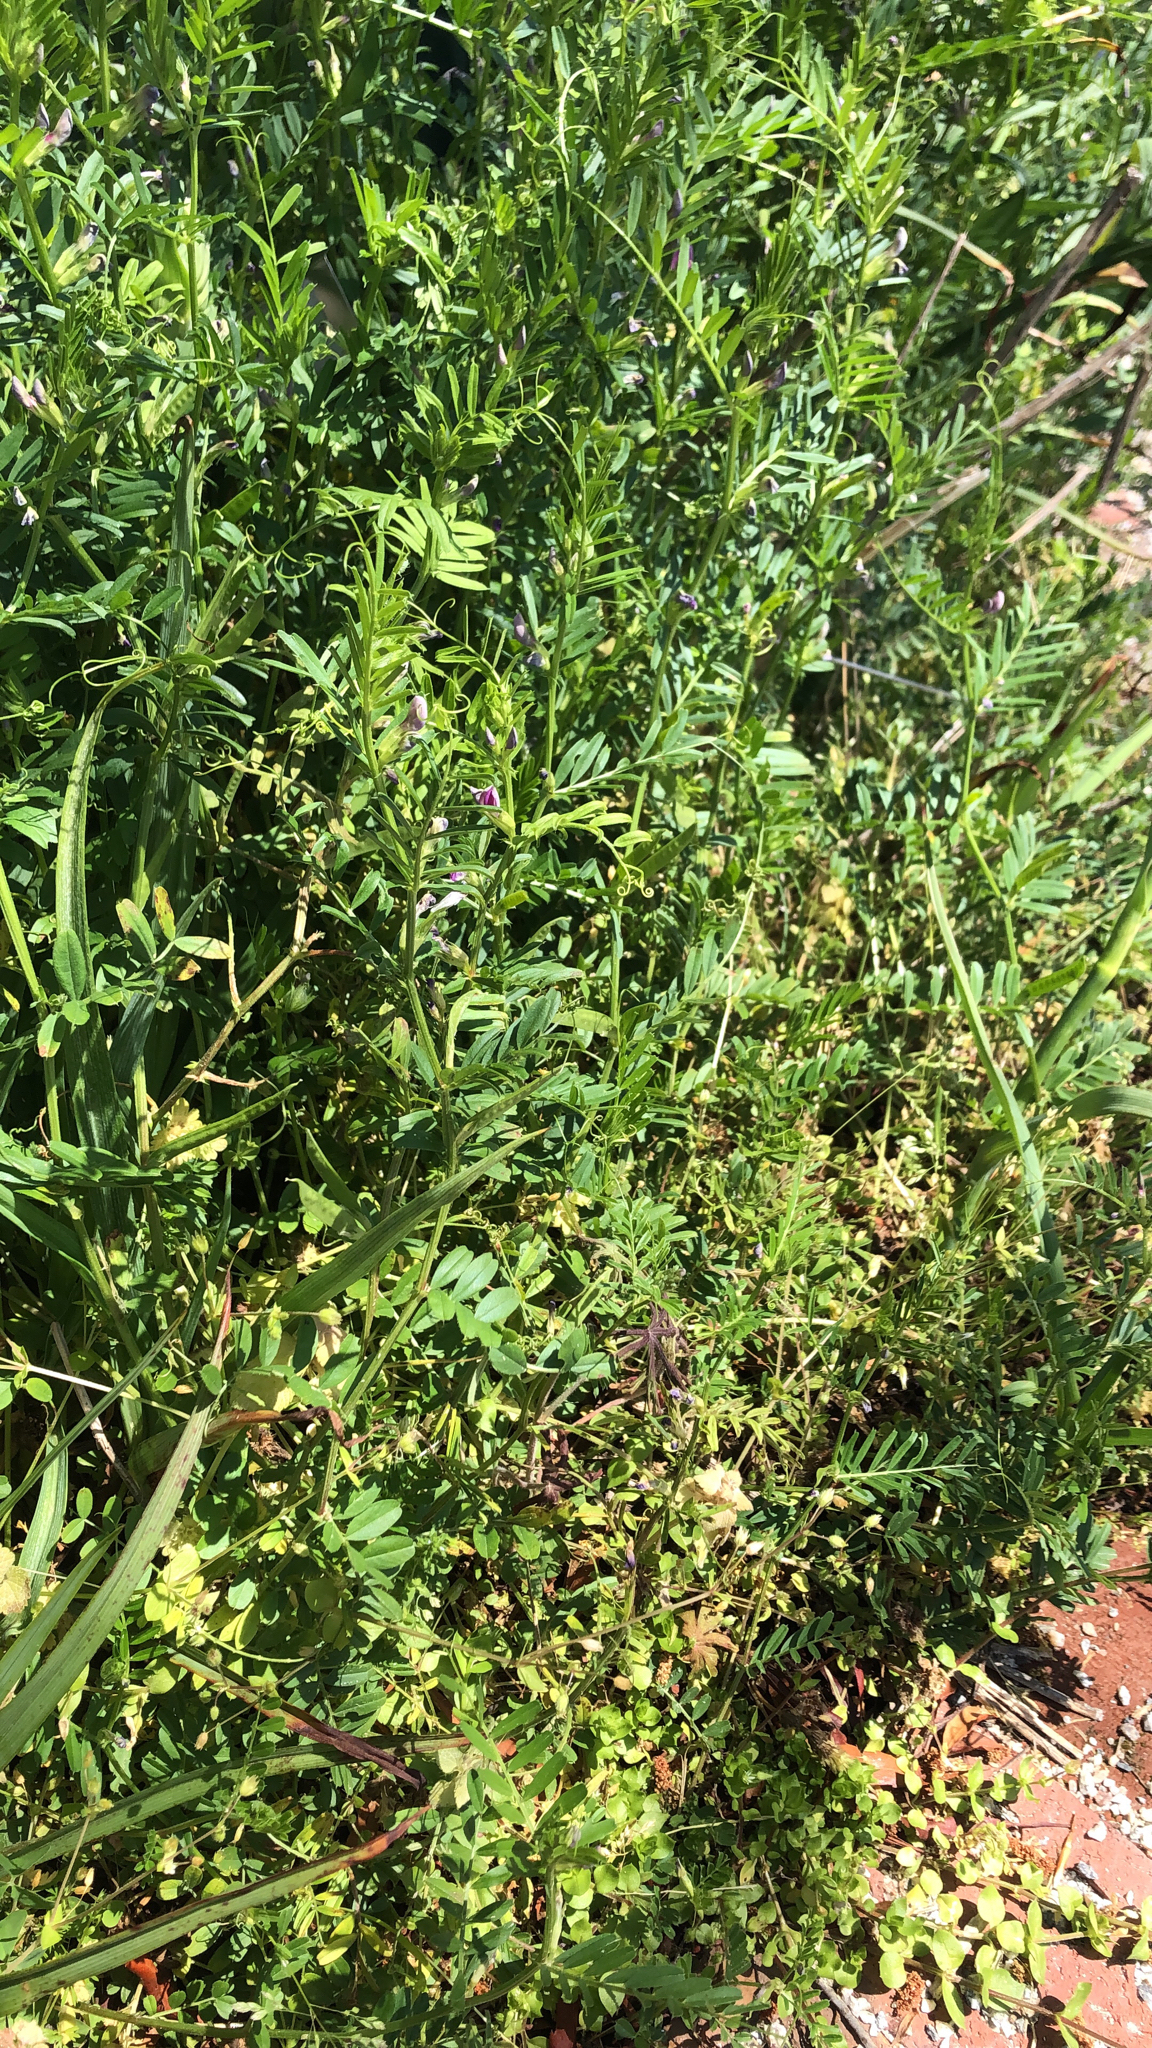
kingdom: Plantae
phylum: Tracheophyta
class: Magnoliopsida
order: Fabales
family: Fabaceae
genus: Vicia
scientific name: Vicia sativa
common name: Garden vetch
